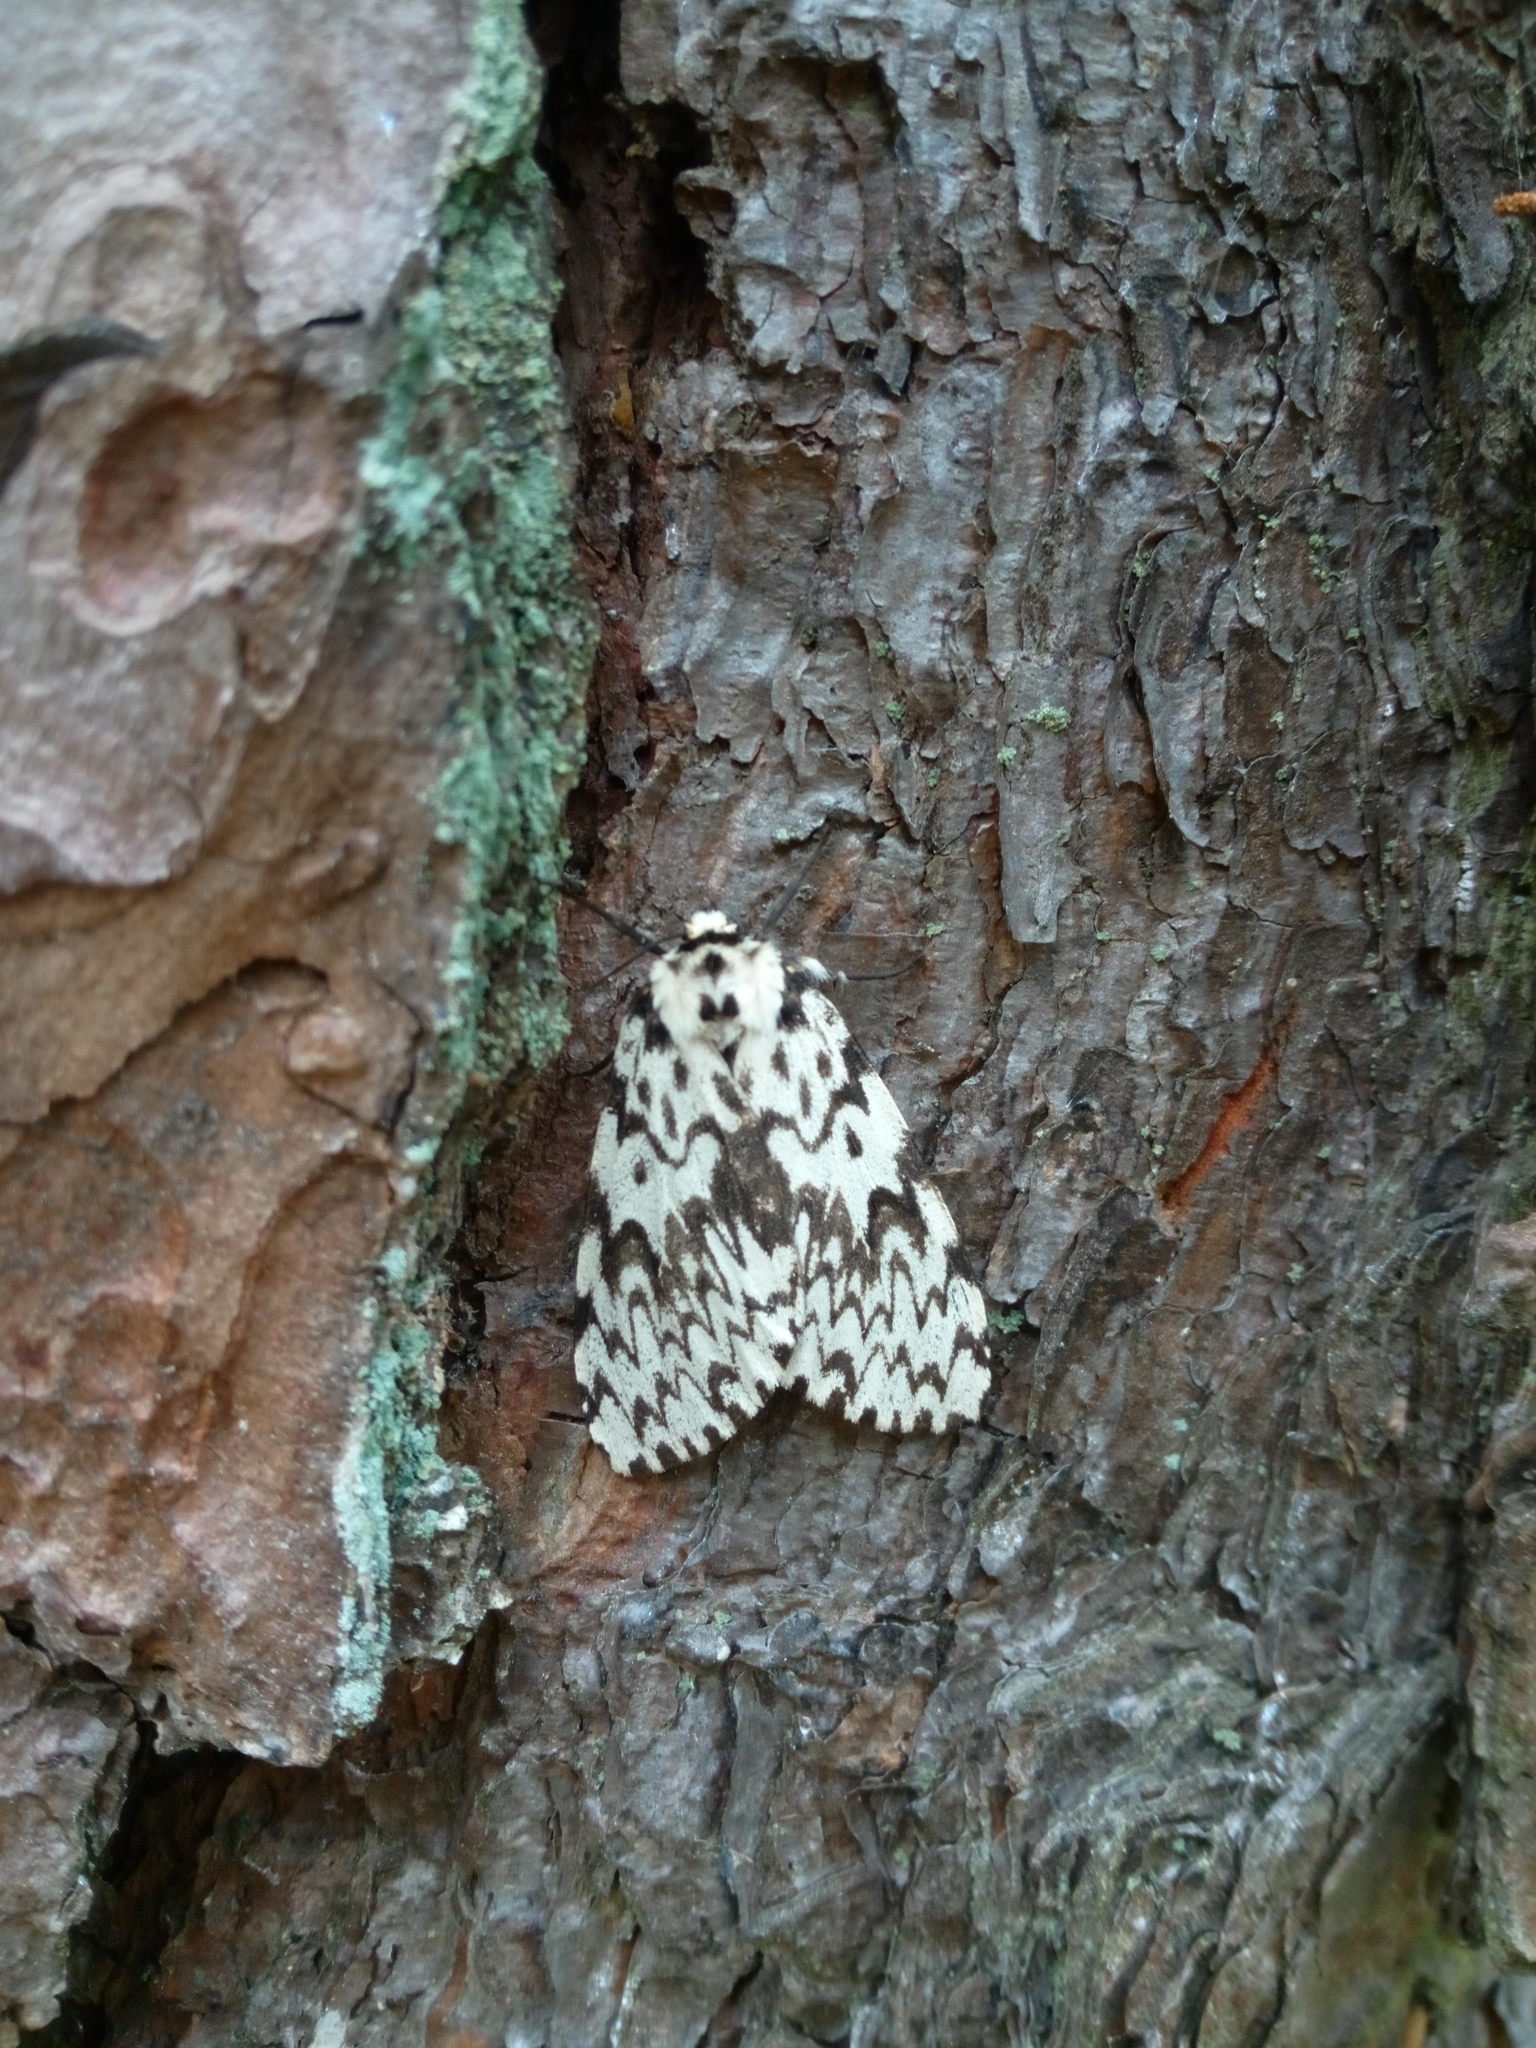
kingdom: Animalia
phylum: Arthropoda
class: Insecta
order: Lepidoptera
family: Erebidae
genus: Lymantria
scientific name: Lymantria monacha
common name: Black arches
